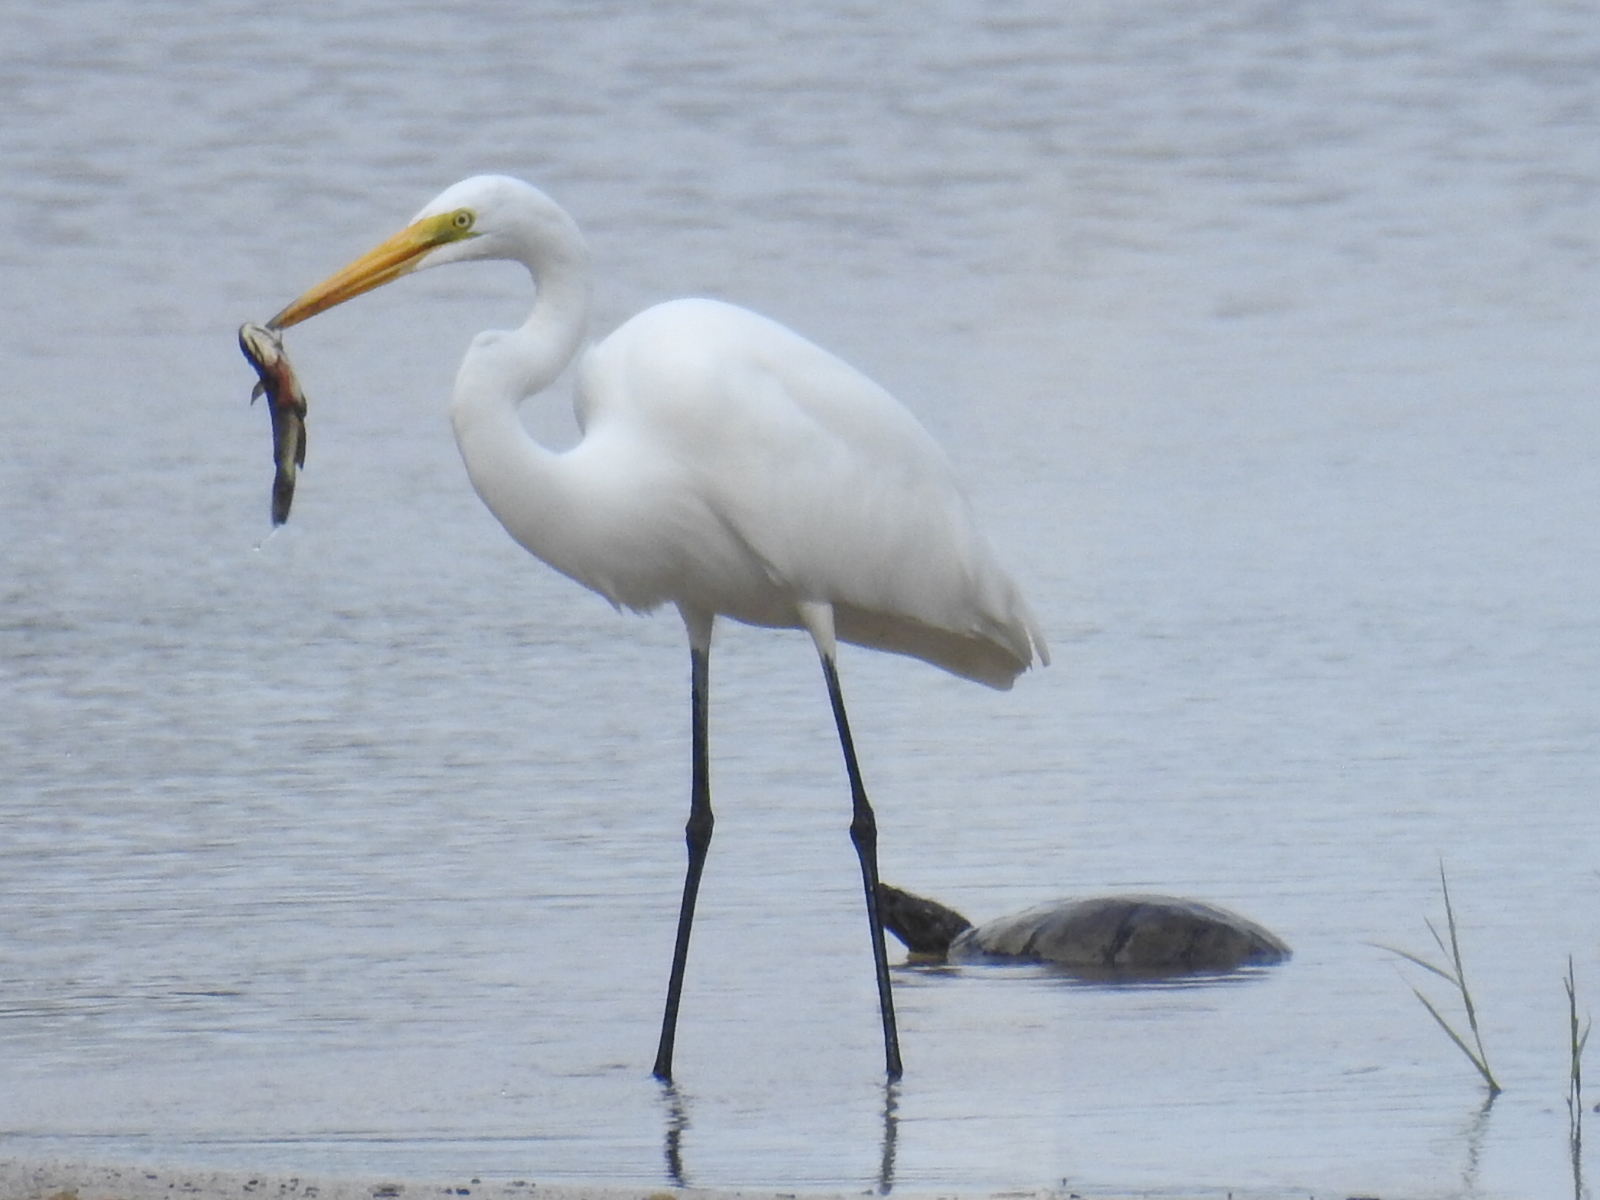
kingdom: Animalia
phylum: Chordata
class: Aves
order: Pelecaniformes
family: Ardeidae
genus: Ardea
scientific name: Ardea alba
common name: Great egret
